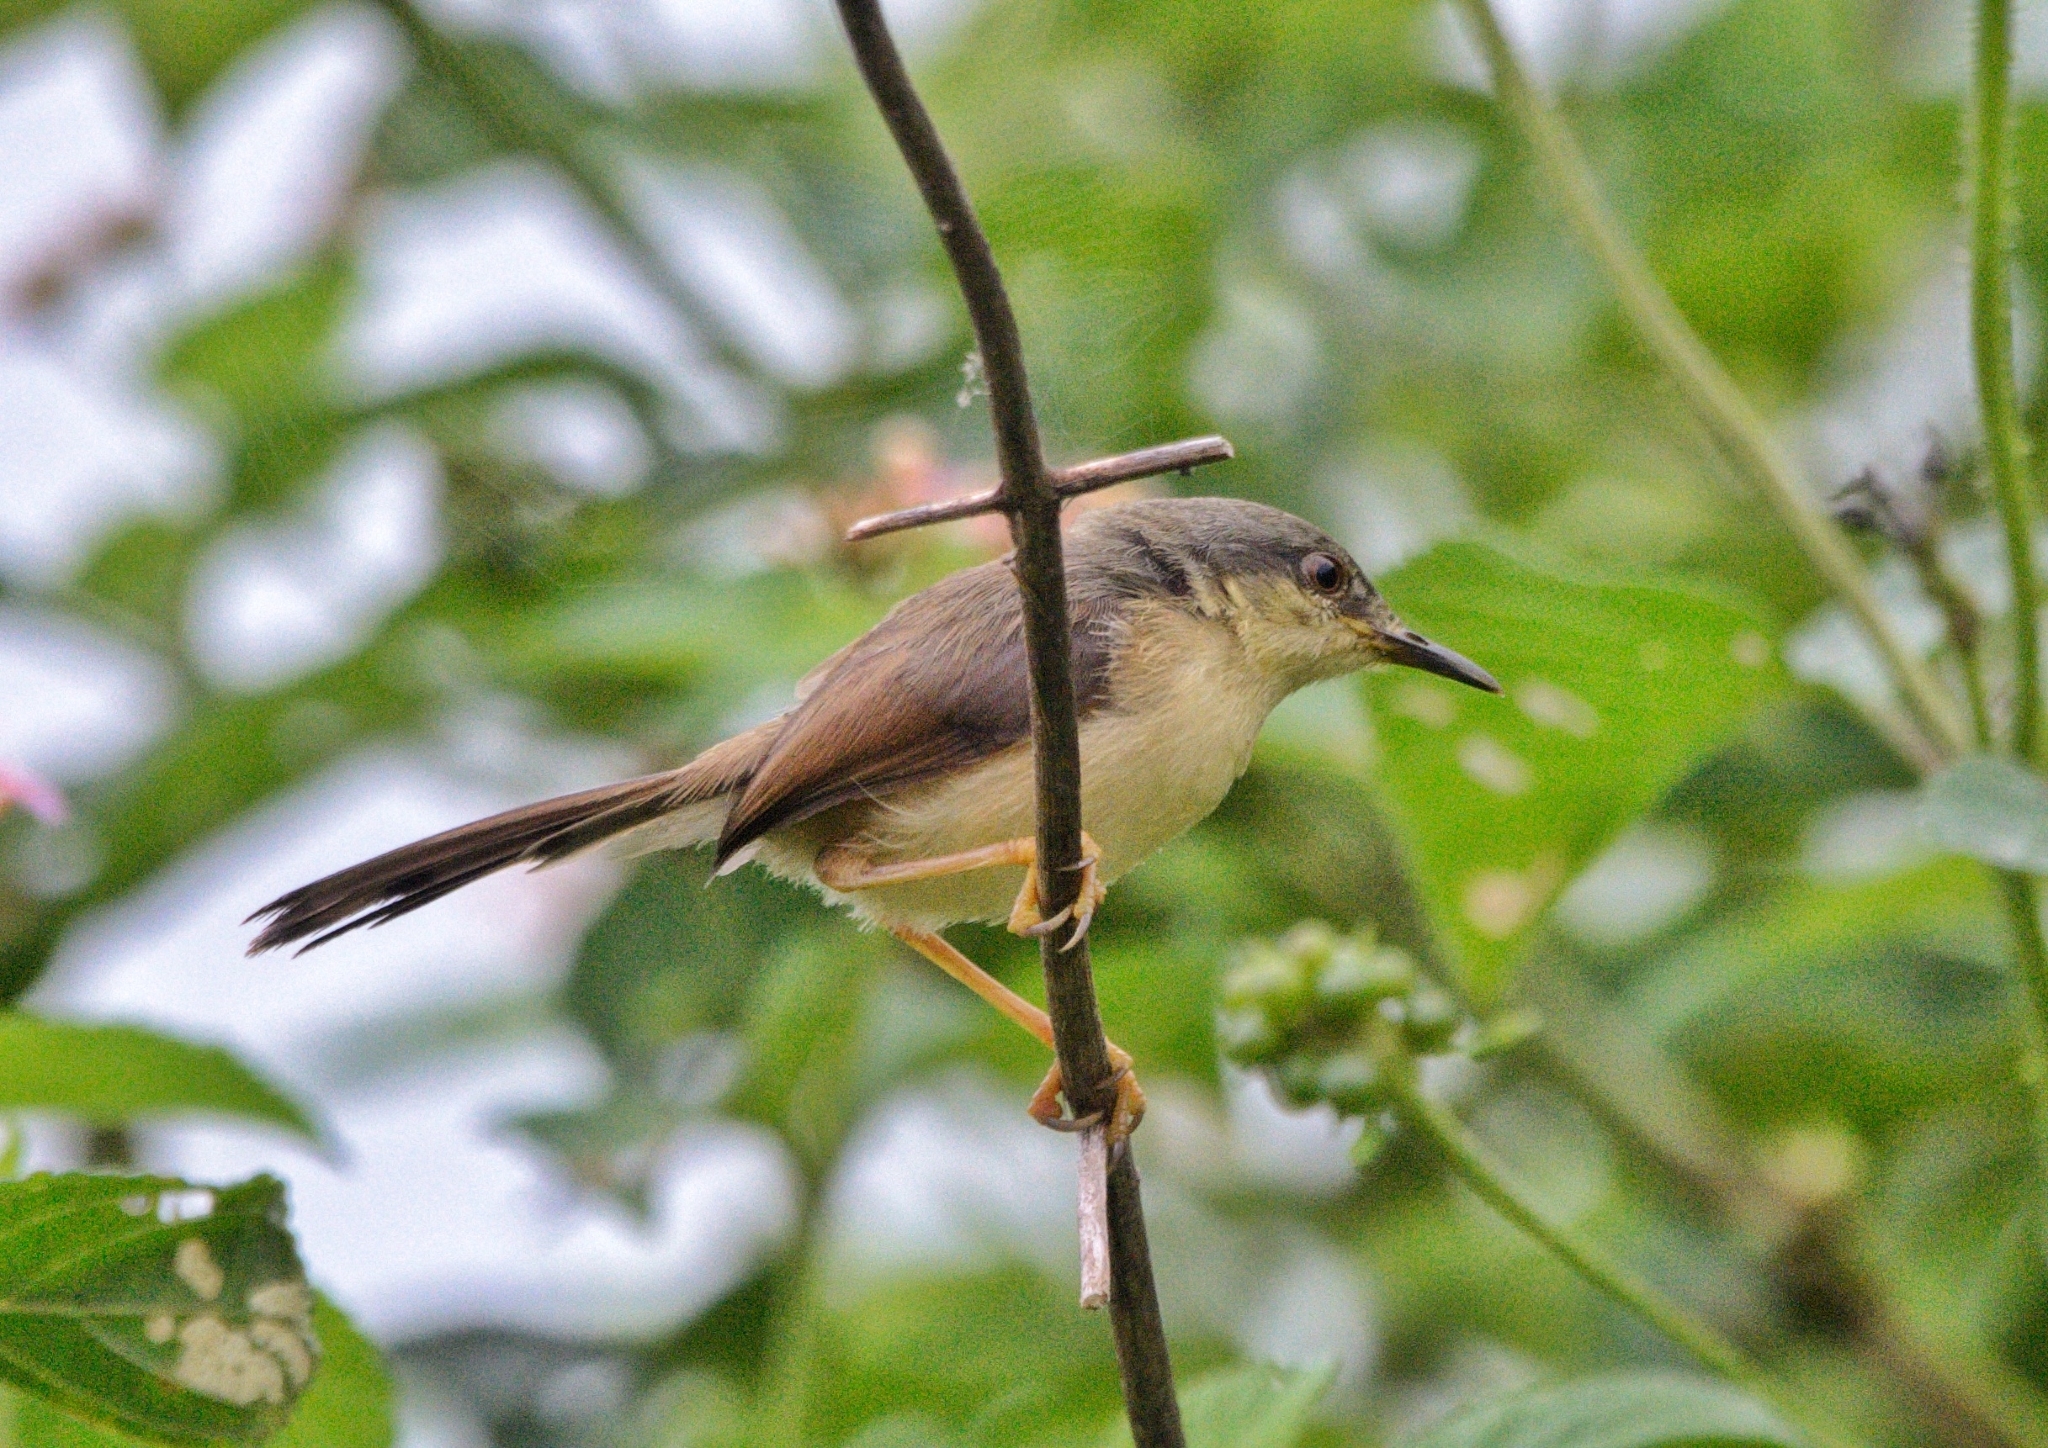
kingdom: Animalia
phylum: Chordata
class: Aves
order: Passeriformes
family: Cisticolidae
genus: Prinia
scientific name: Prinia socialis
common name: Ashy prinia
